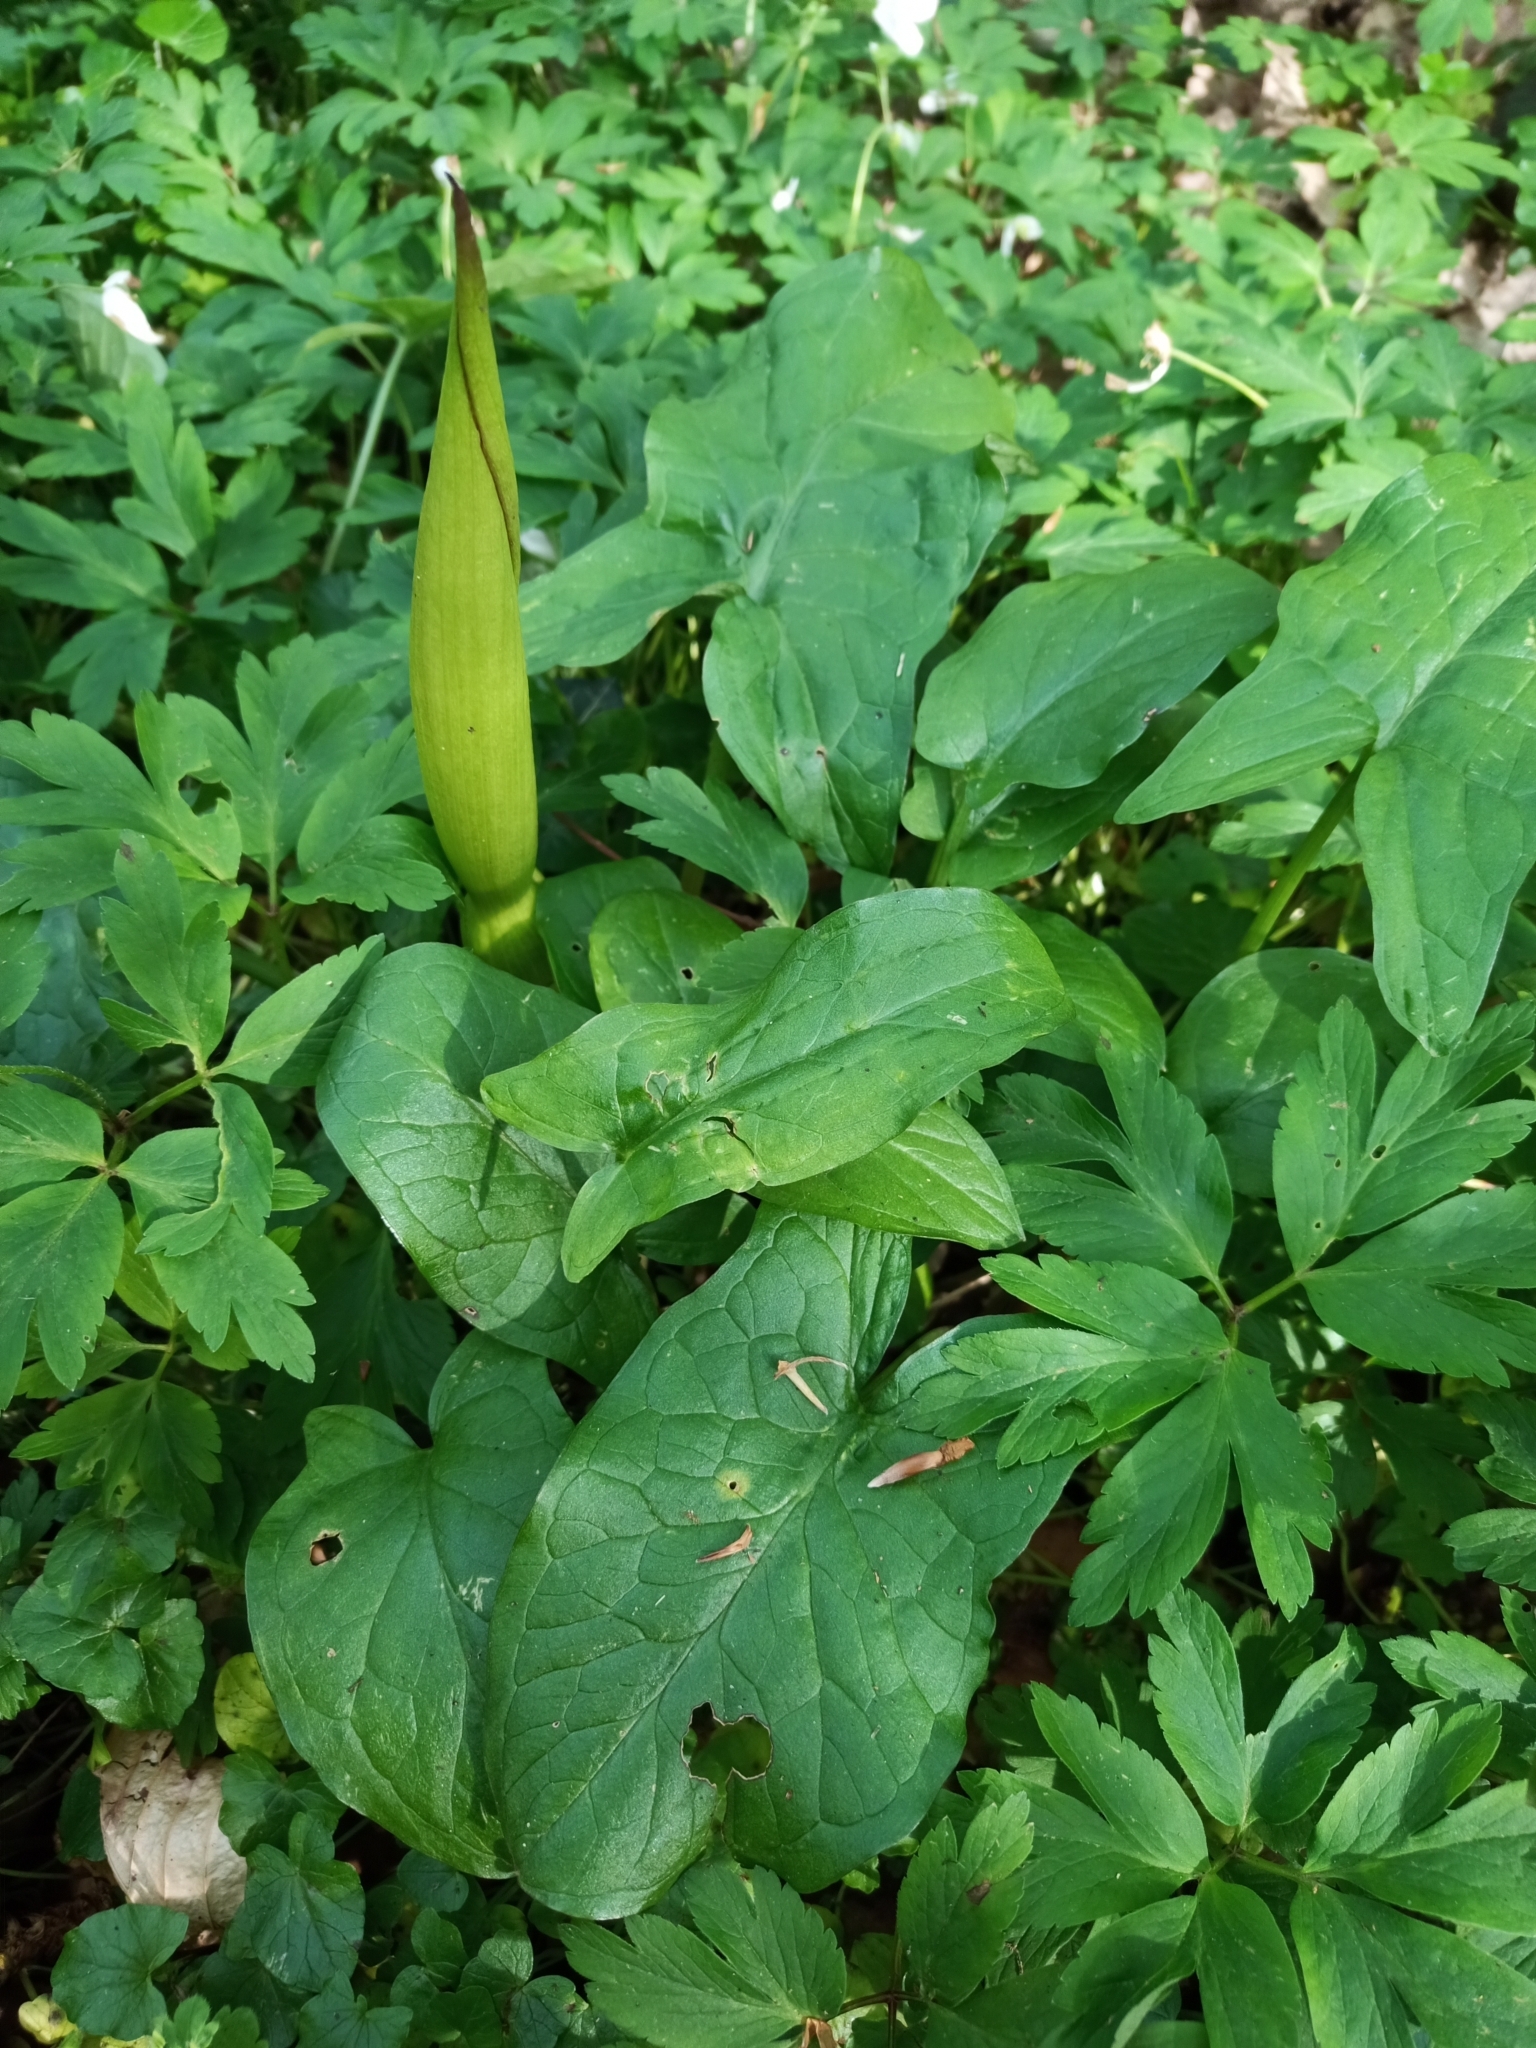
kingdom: Plantae
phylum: Tracheophyta
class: Liliopsida
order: Alismatales
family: Araceae
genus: Arum
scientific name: Arum maculatum
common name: Lords-and-ladies
